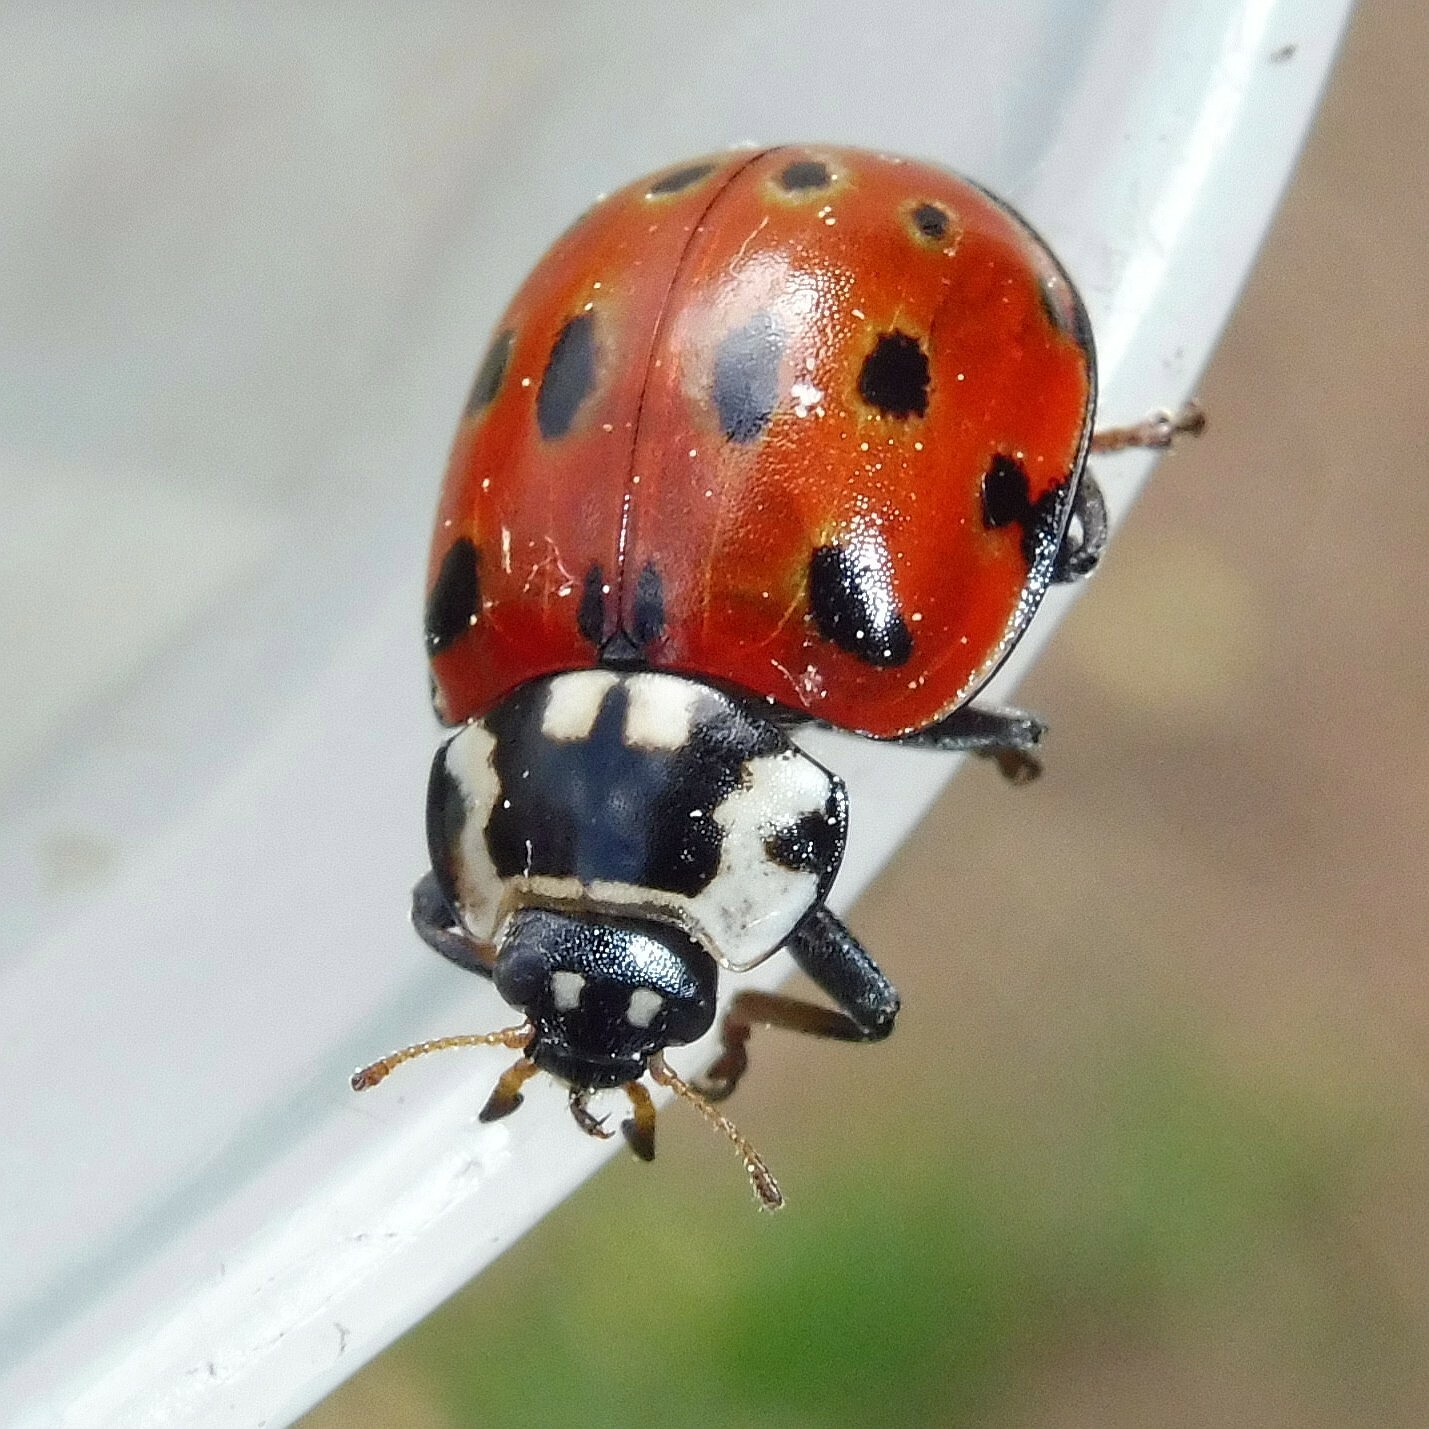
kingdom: Animalia
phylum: Arthropoda
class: Insecta
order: Coleoptera
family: Coccinellidae
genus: Anatis
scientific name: Anatis ocellata
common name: Eyed ladybird
